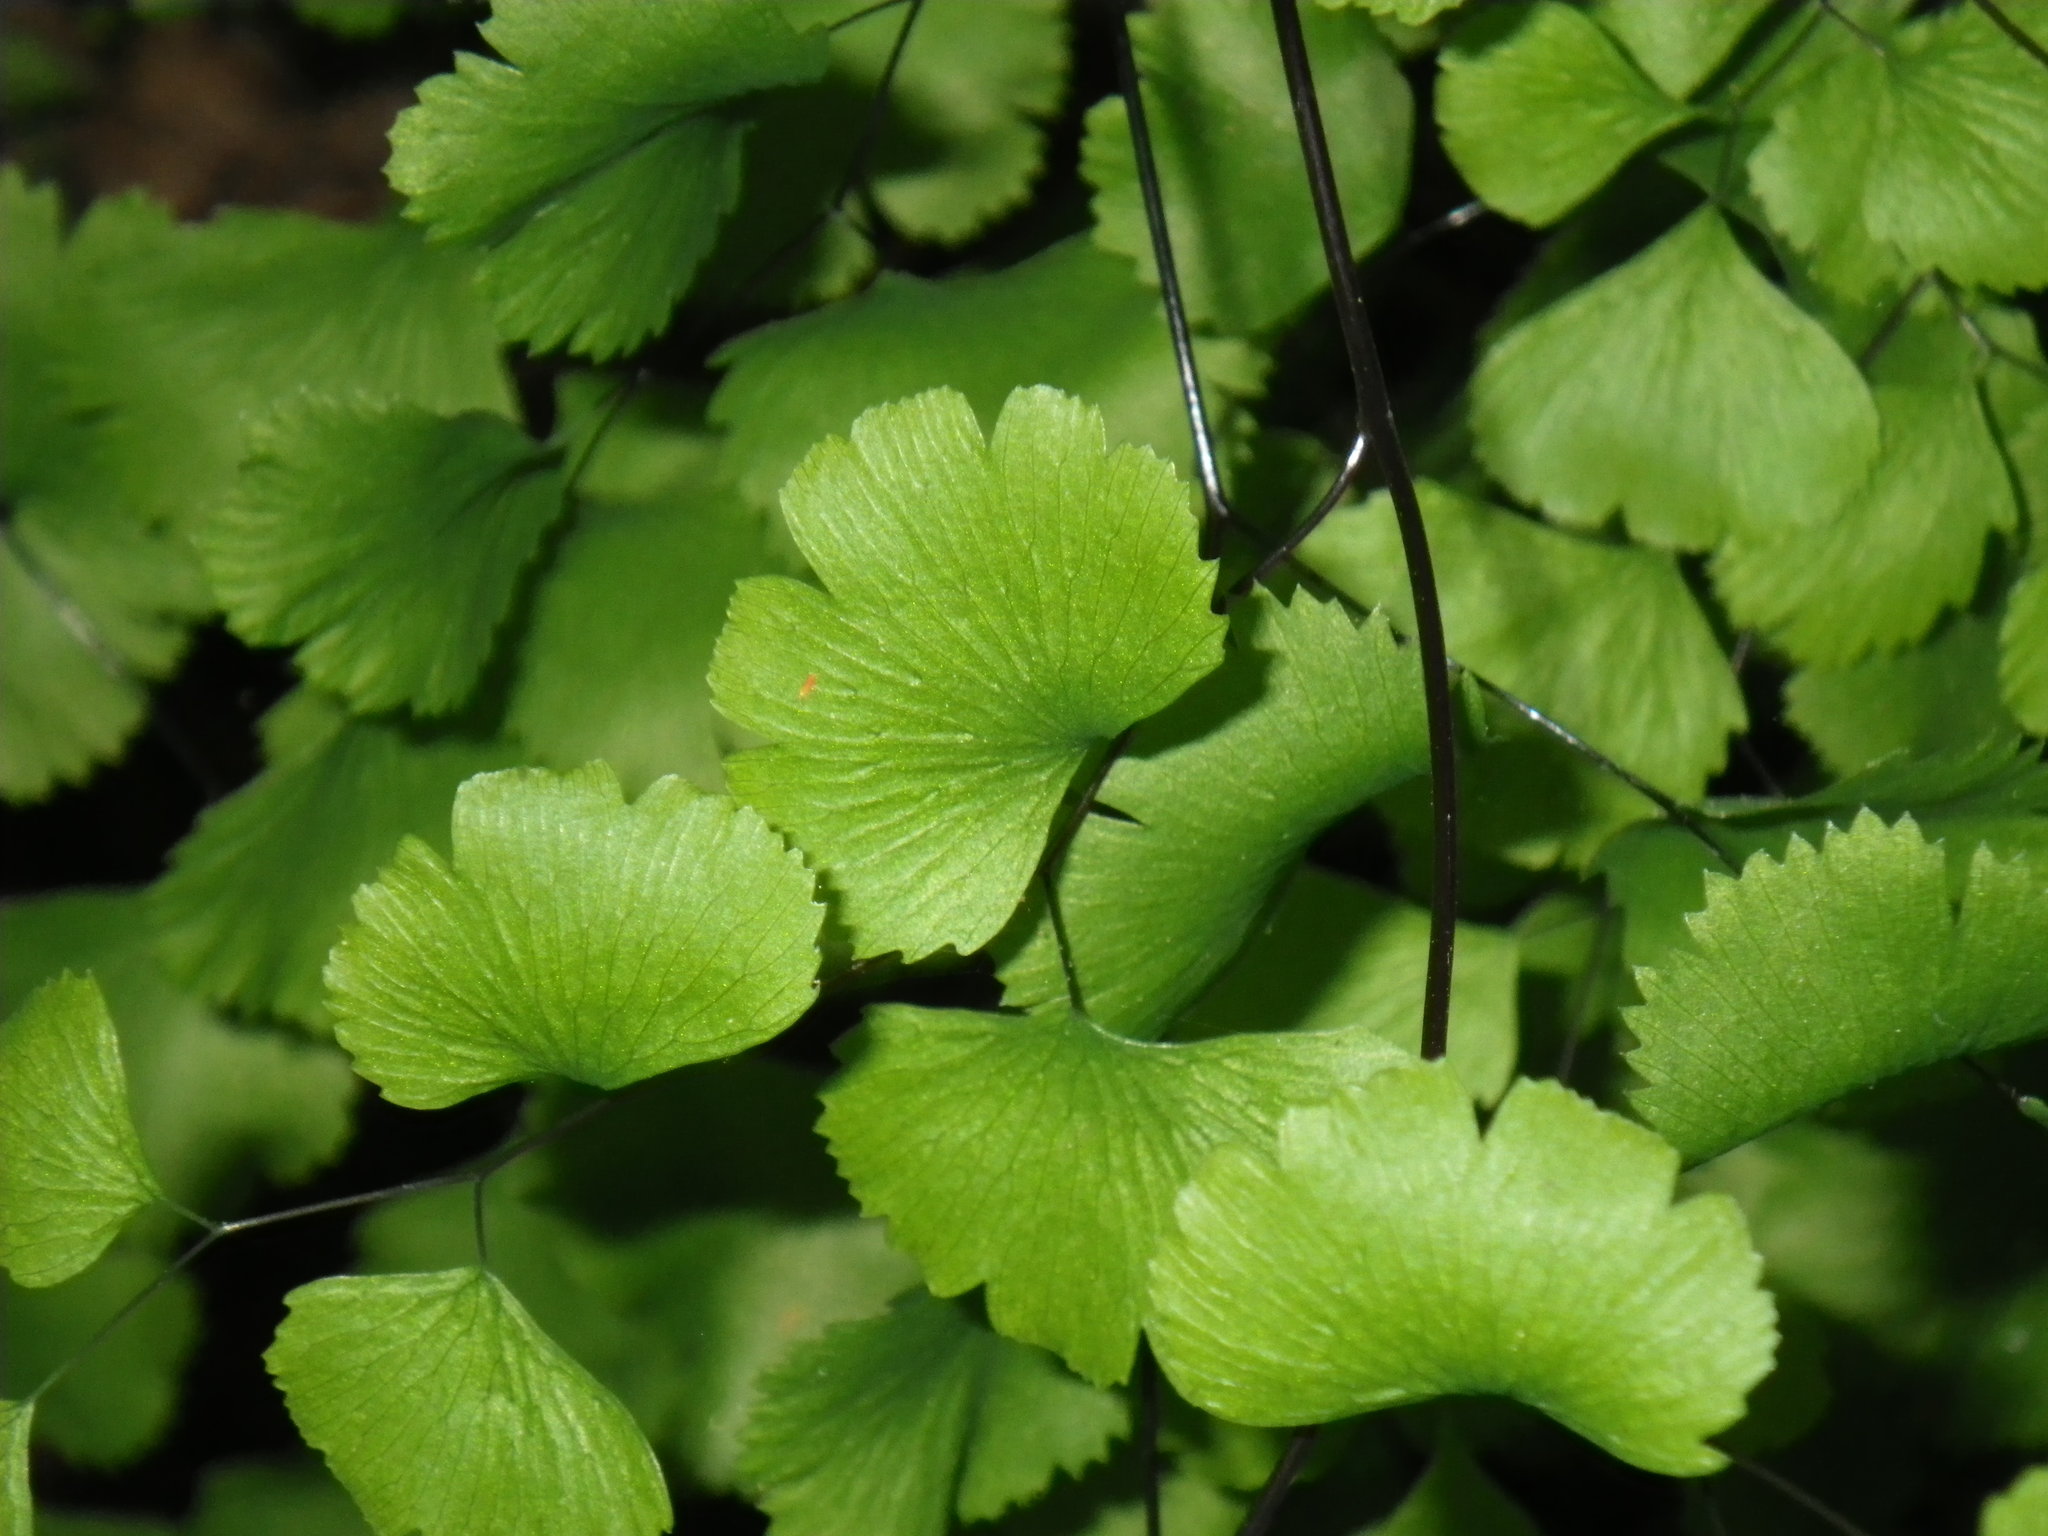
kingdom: Plantae
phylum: Tracheophyta
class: Polypodiopsida
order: Polypodiales
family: Pteridaceae
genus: Adiantum
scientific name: Adiantum jordanii
